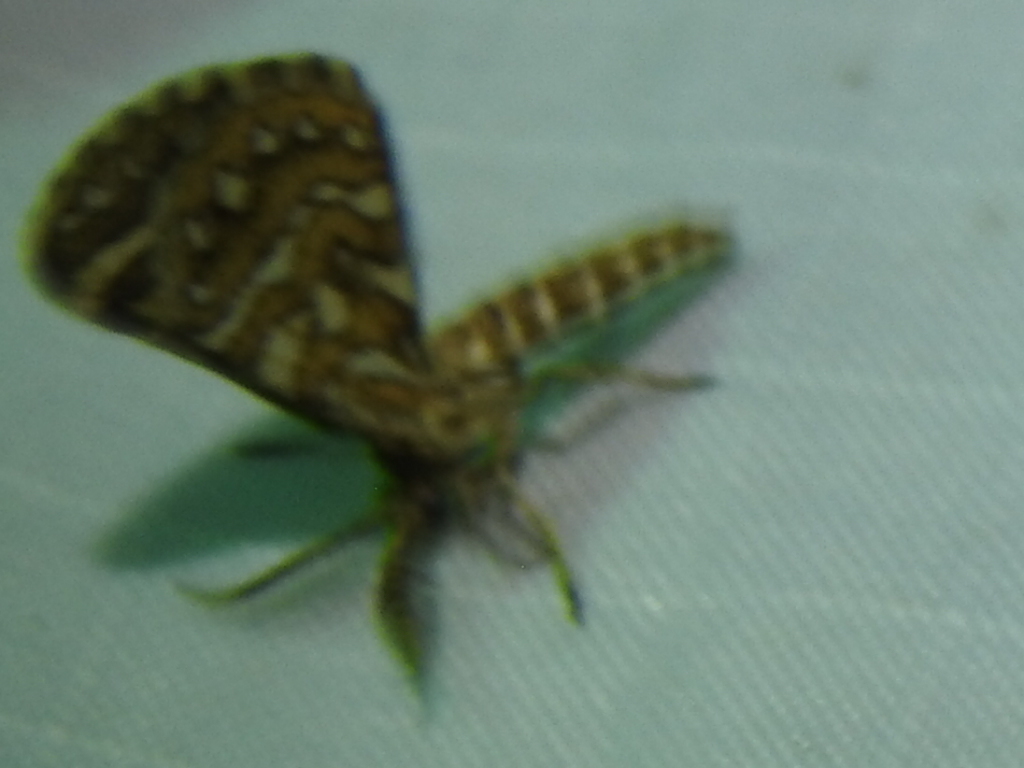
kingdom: Animalia
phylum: Arthropoda
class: Insecta
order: Lepidoptera
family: Geometridae
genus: Narraga
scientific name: Narraga fimetaria
